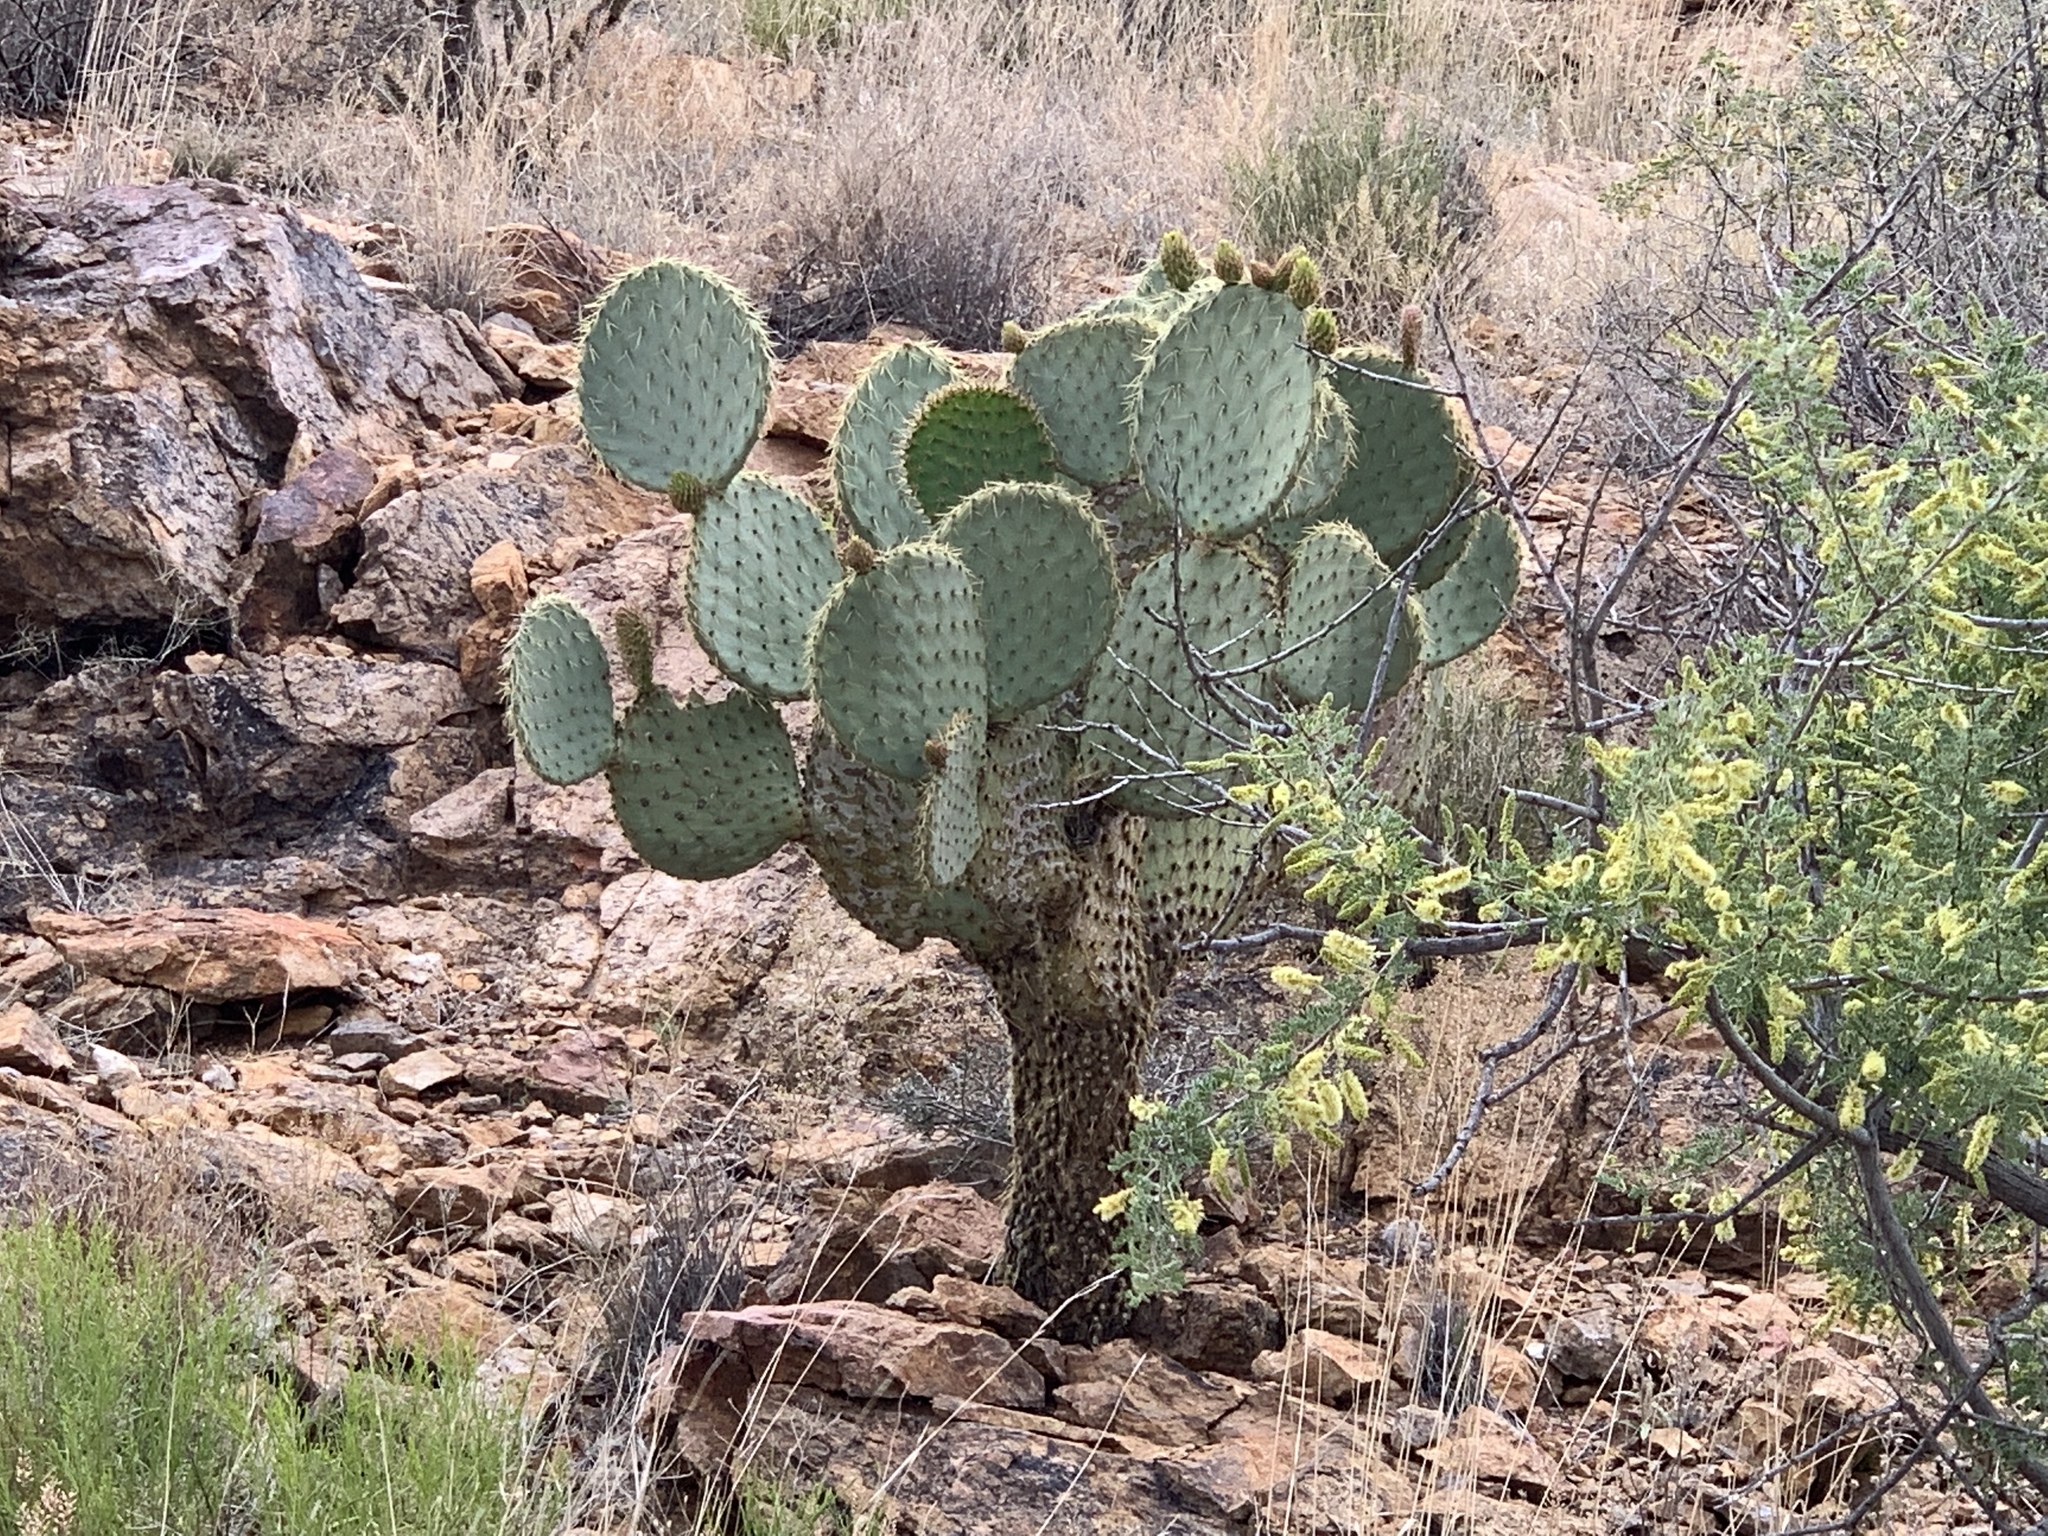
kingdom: Plantae
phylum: Tracheophyta
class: Magnoliopsida
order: Caryophyllales
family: Cactaceae
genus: Opuntia
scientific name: Opuntia chlorotica
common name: Dollar-joint prickly-pear
